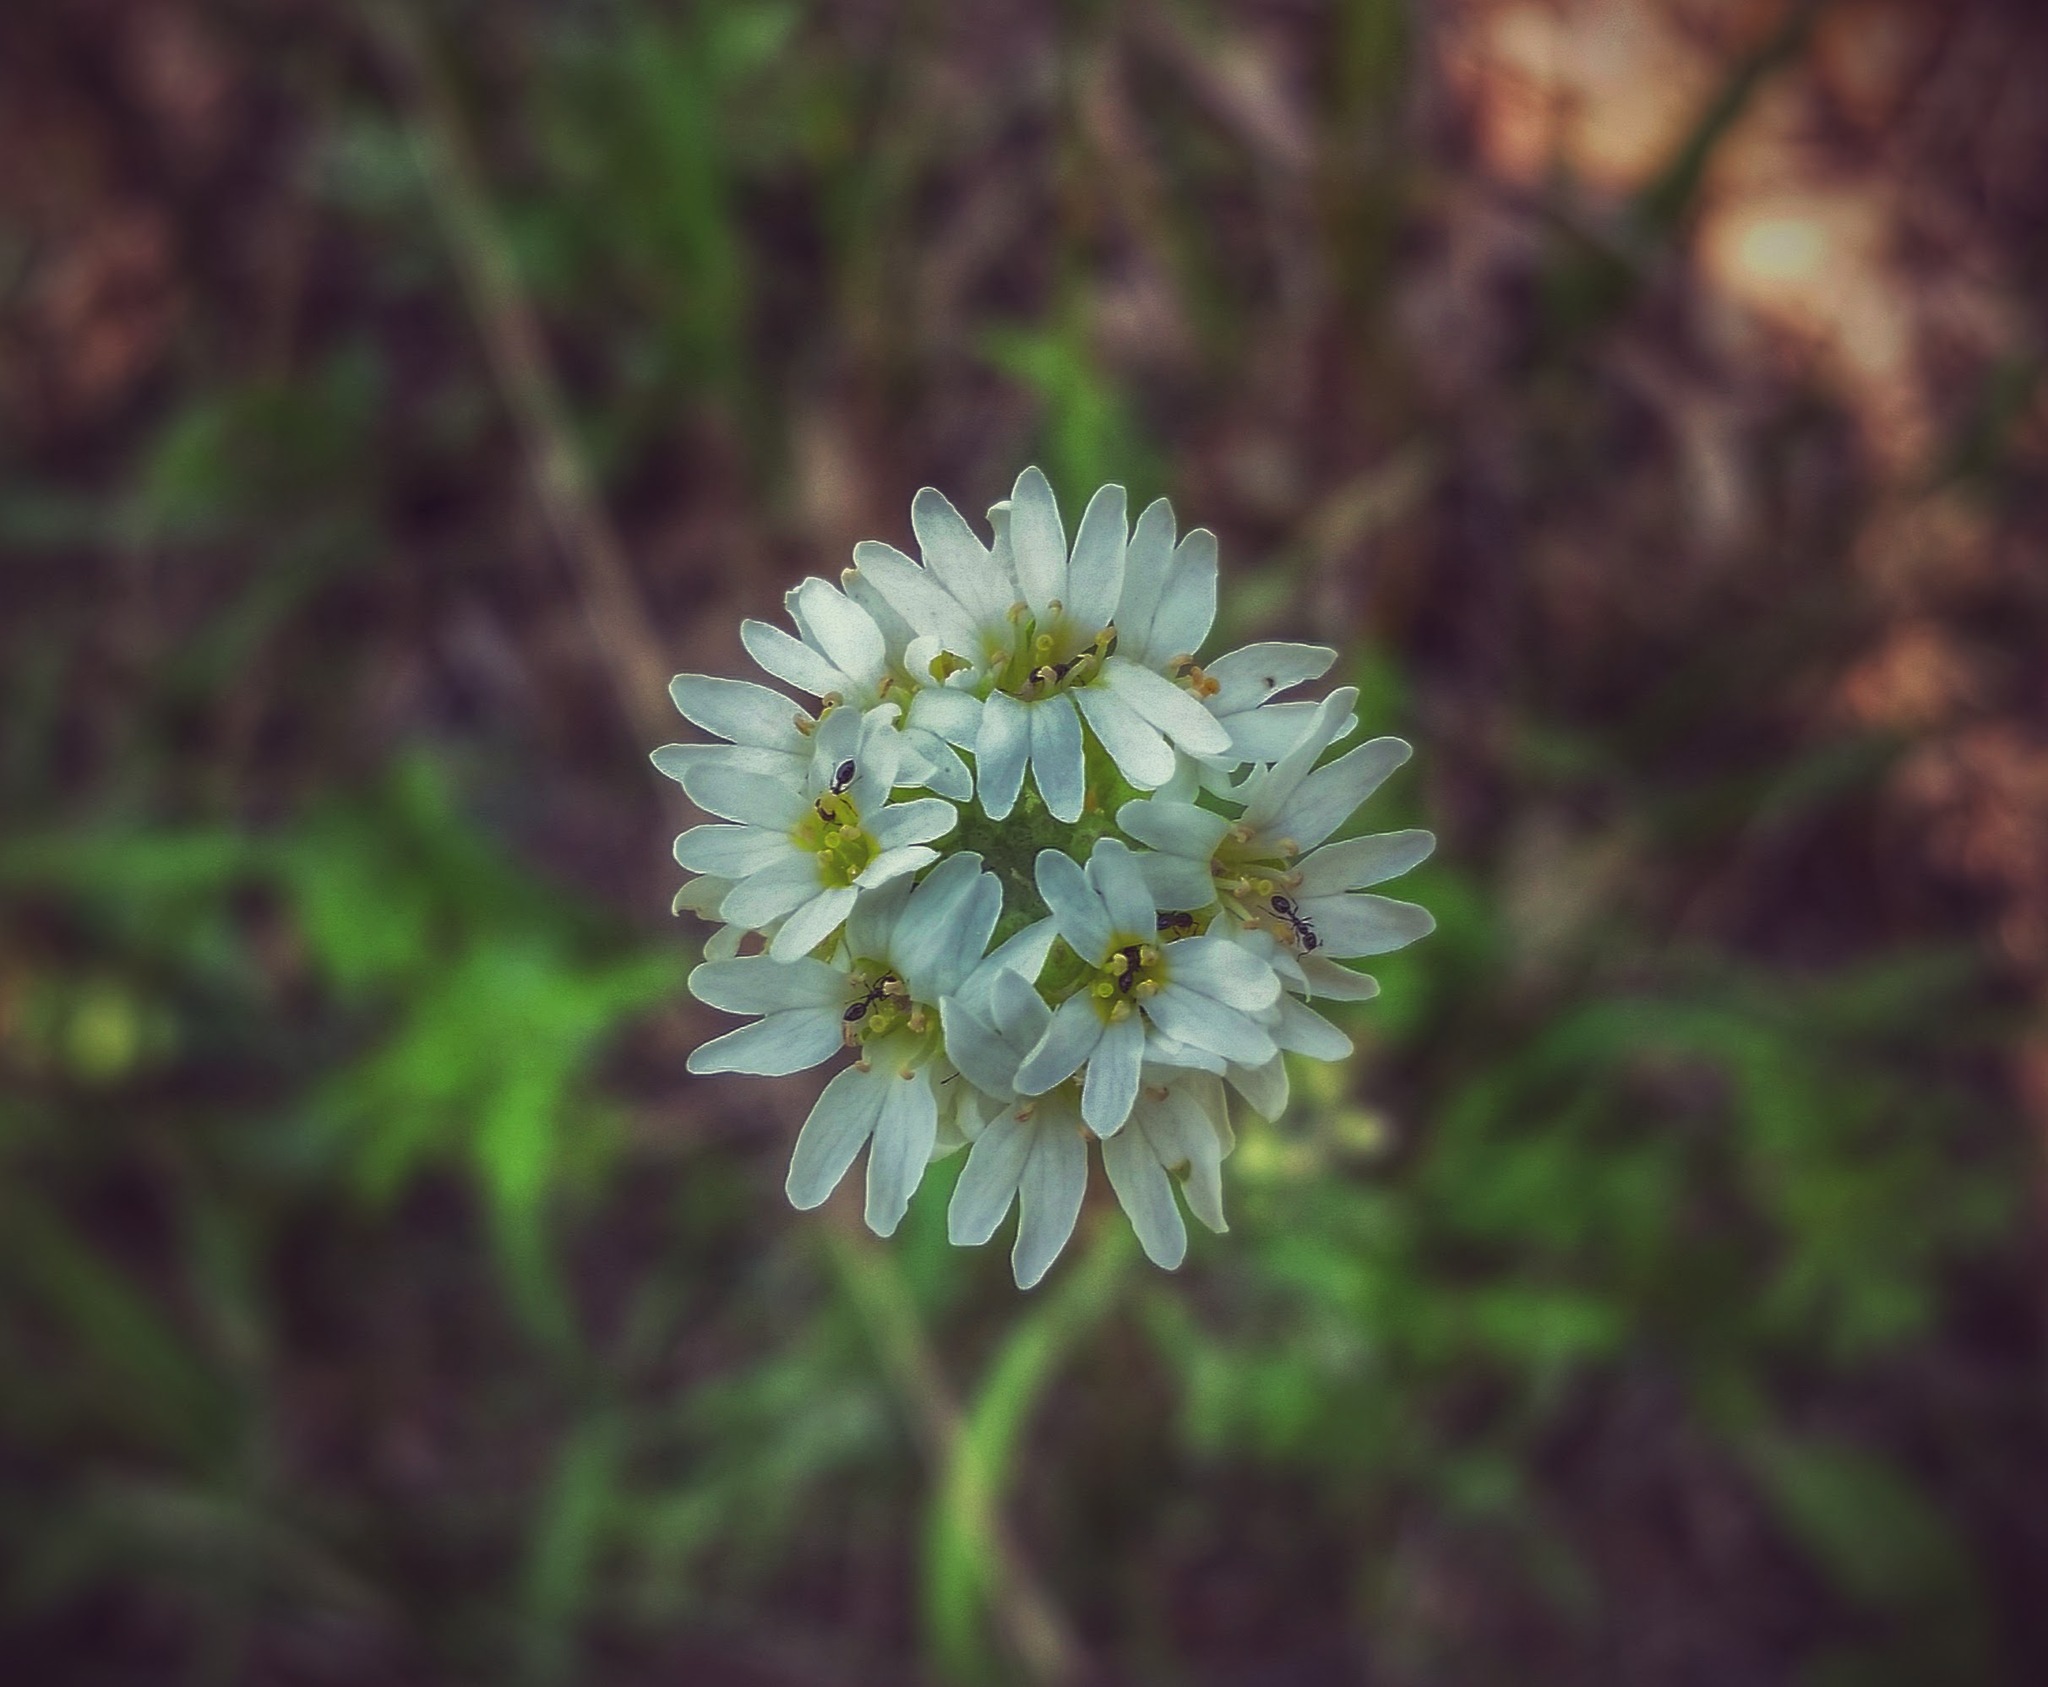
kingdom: Plantae
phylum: Tracheophyta
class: Magnoliopsida
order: Brassicales
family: Brassicaceae
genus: Berteroa
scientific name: Berteroa incana
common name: Hoary alison
